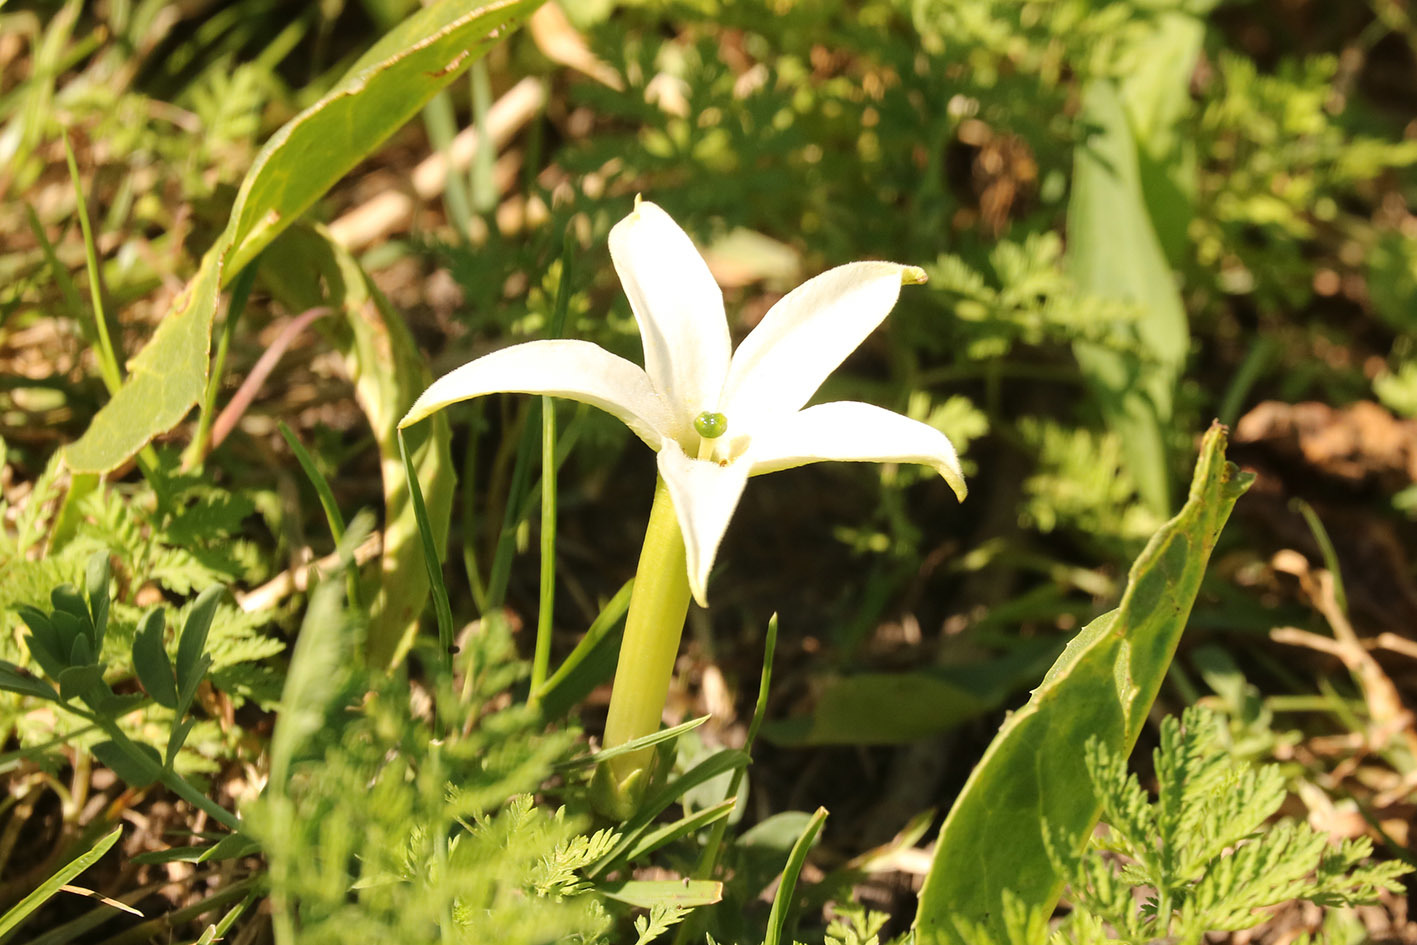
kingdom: Plantae
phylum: Tracheophyta
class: Magnoliopsida
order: Solanales
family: Solanaceae
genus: Jaborosa
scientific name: Jaborosa integrifolia
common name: Springblossom
